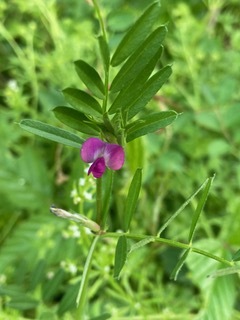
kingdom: Plantae
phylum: Tracheophyta
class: Magnoliopsida
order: Fabales
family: Fabaceae
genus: Vicia
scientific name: Vicia sativa
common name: Garden vetch
